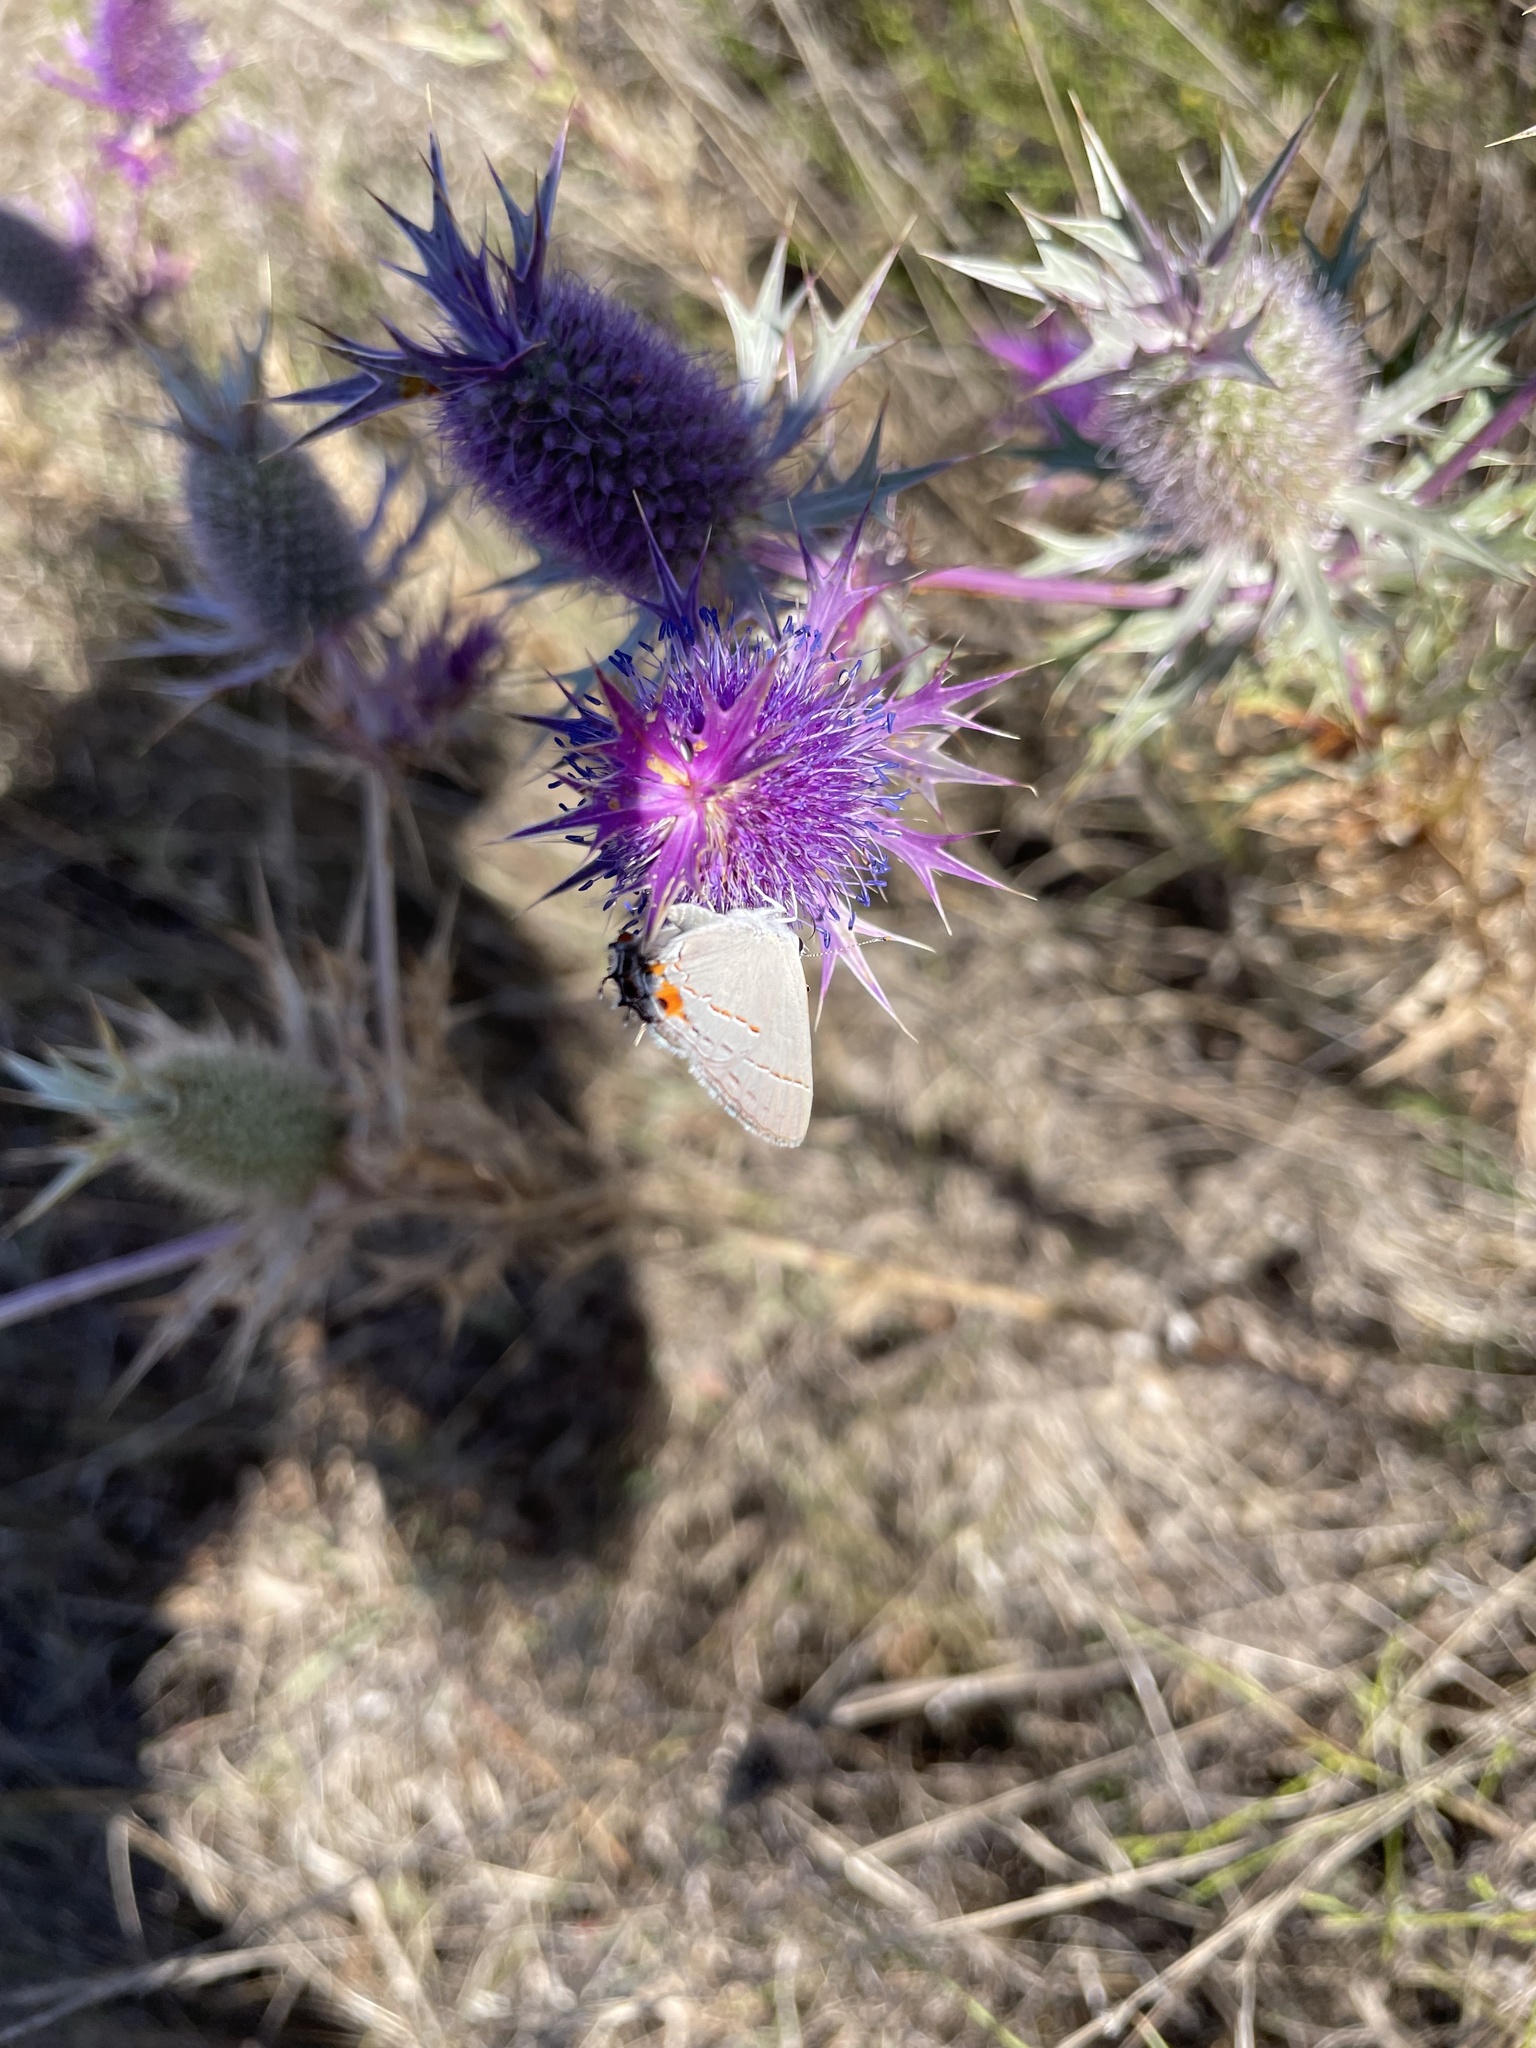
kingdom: Animalia
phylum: Arthropoda
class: Insecta
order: Lepidoptera
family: Lycaenidae
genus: Strymon
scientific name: Strymon melinus
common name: Gray hairstreak
